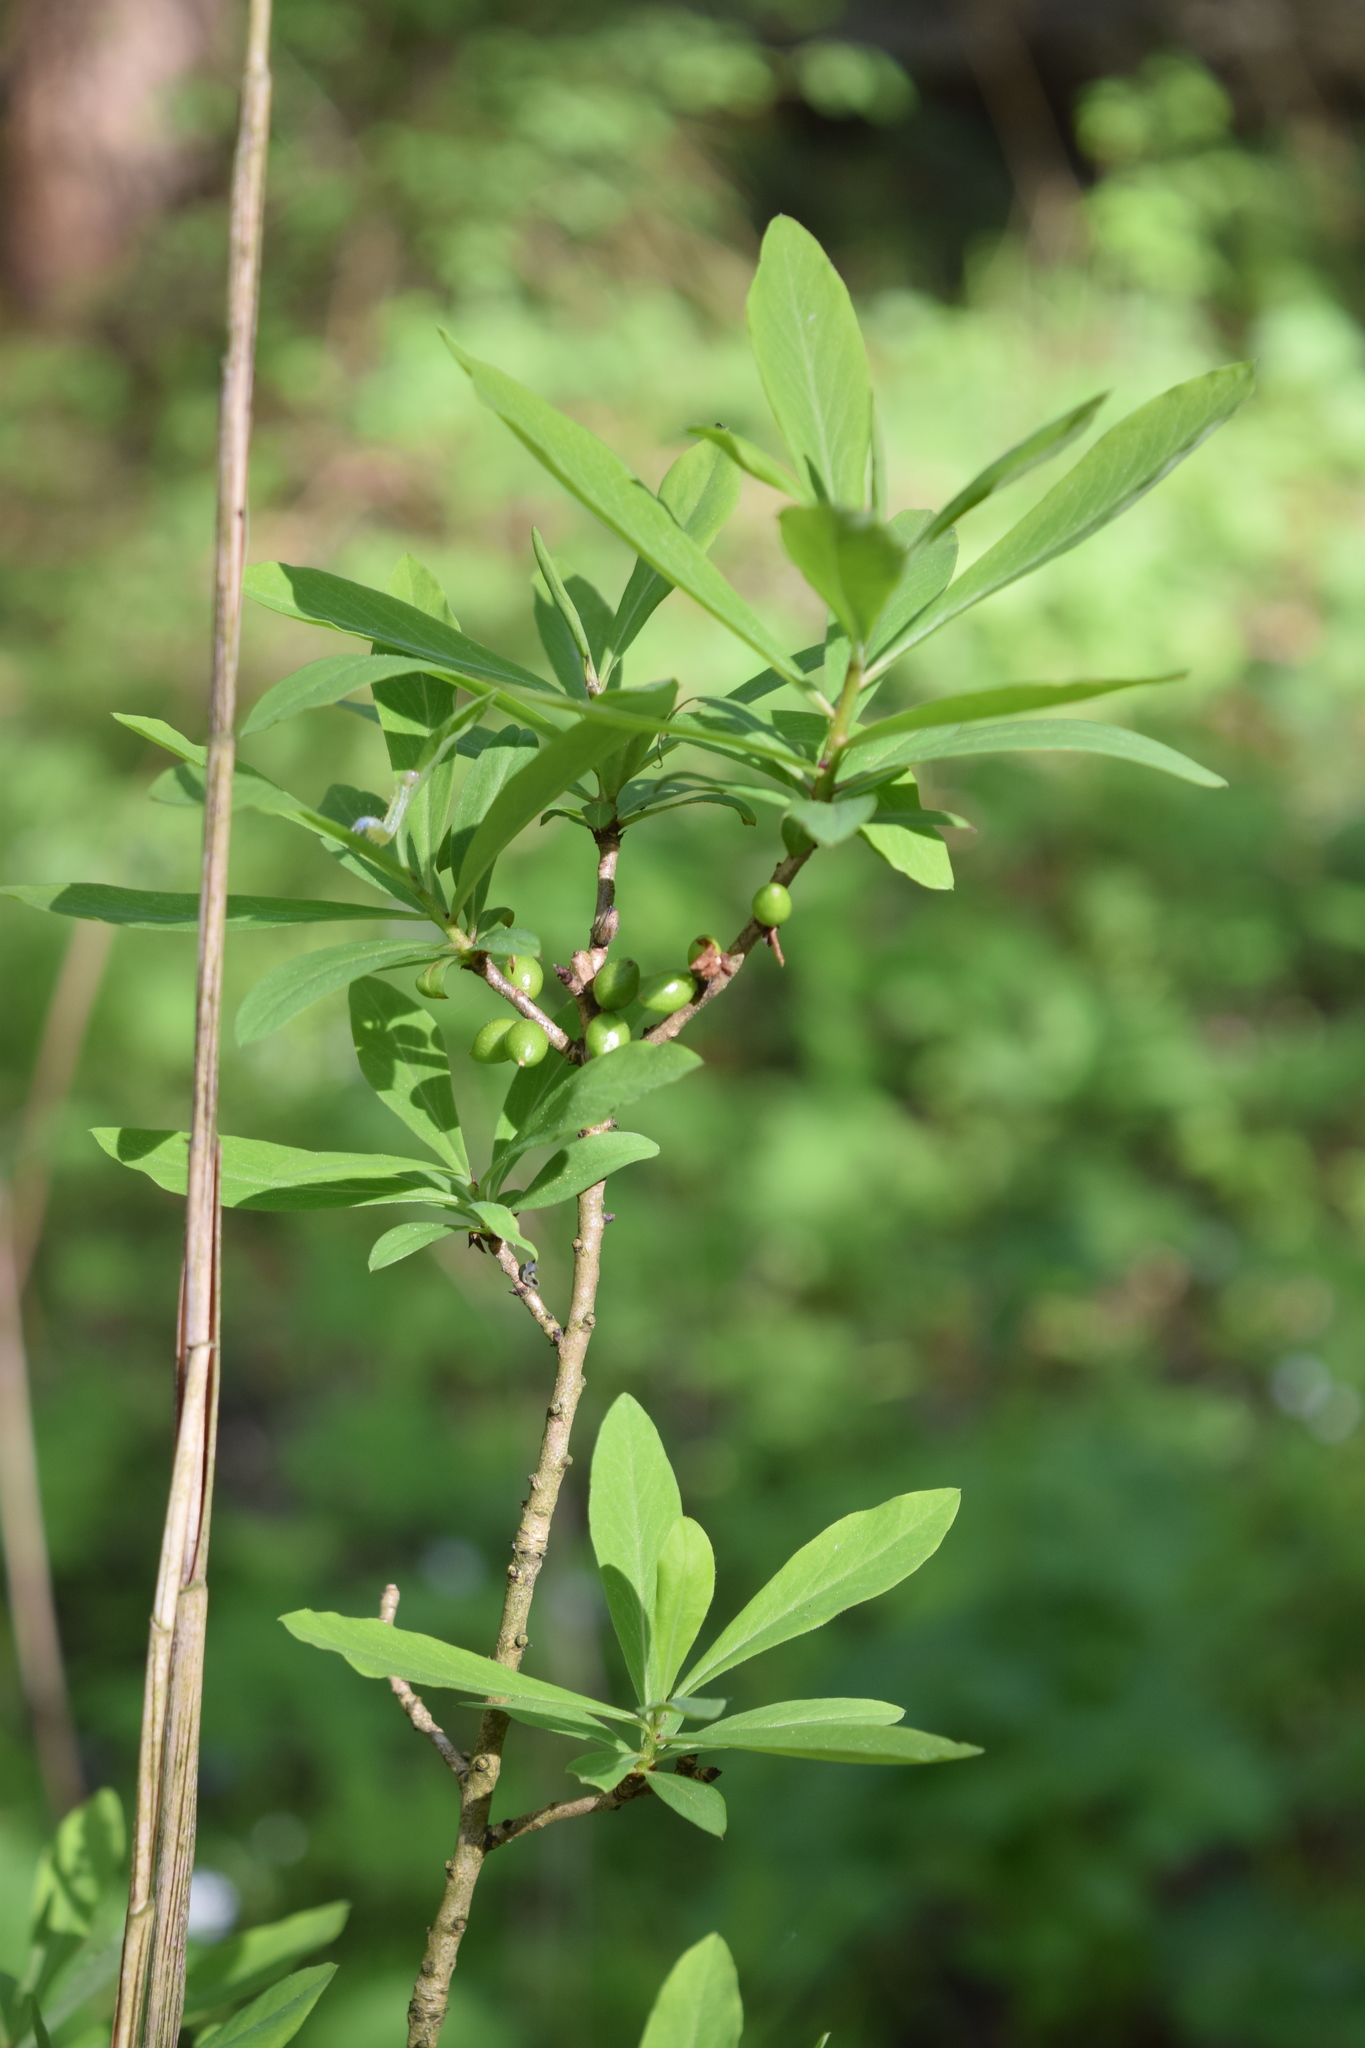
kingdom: Plantae
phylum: Tracheophyta
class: Magnoliopsida
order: Malvales
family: Thymelaeaceae
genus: Daphne
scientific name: Daphne mezereum
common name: Mezereon
